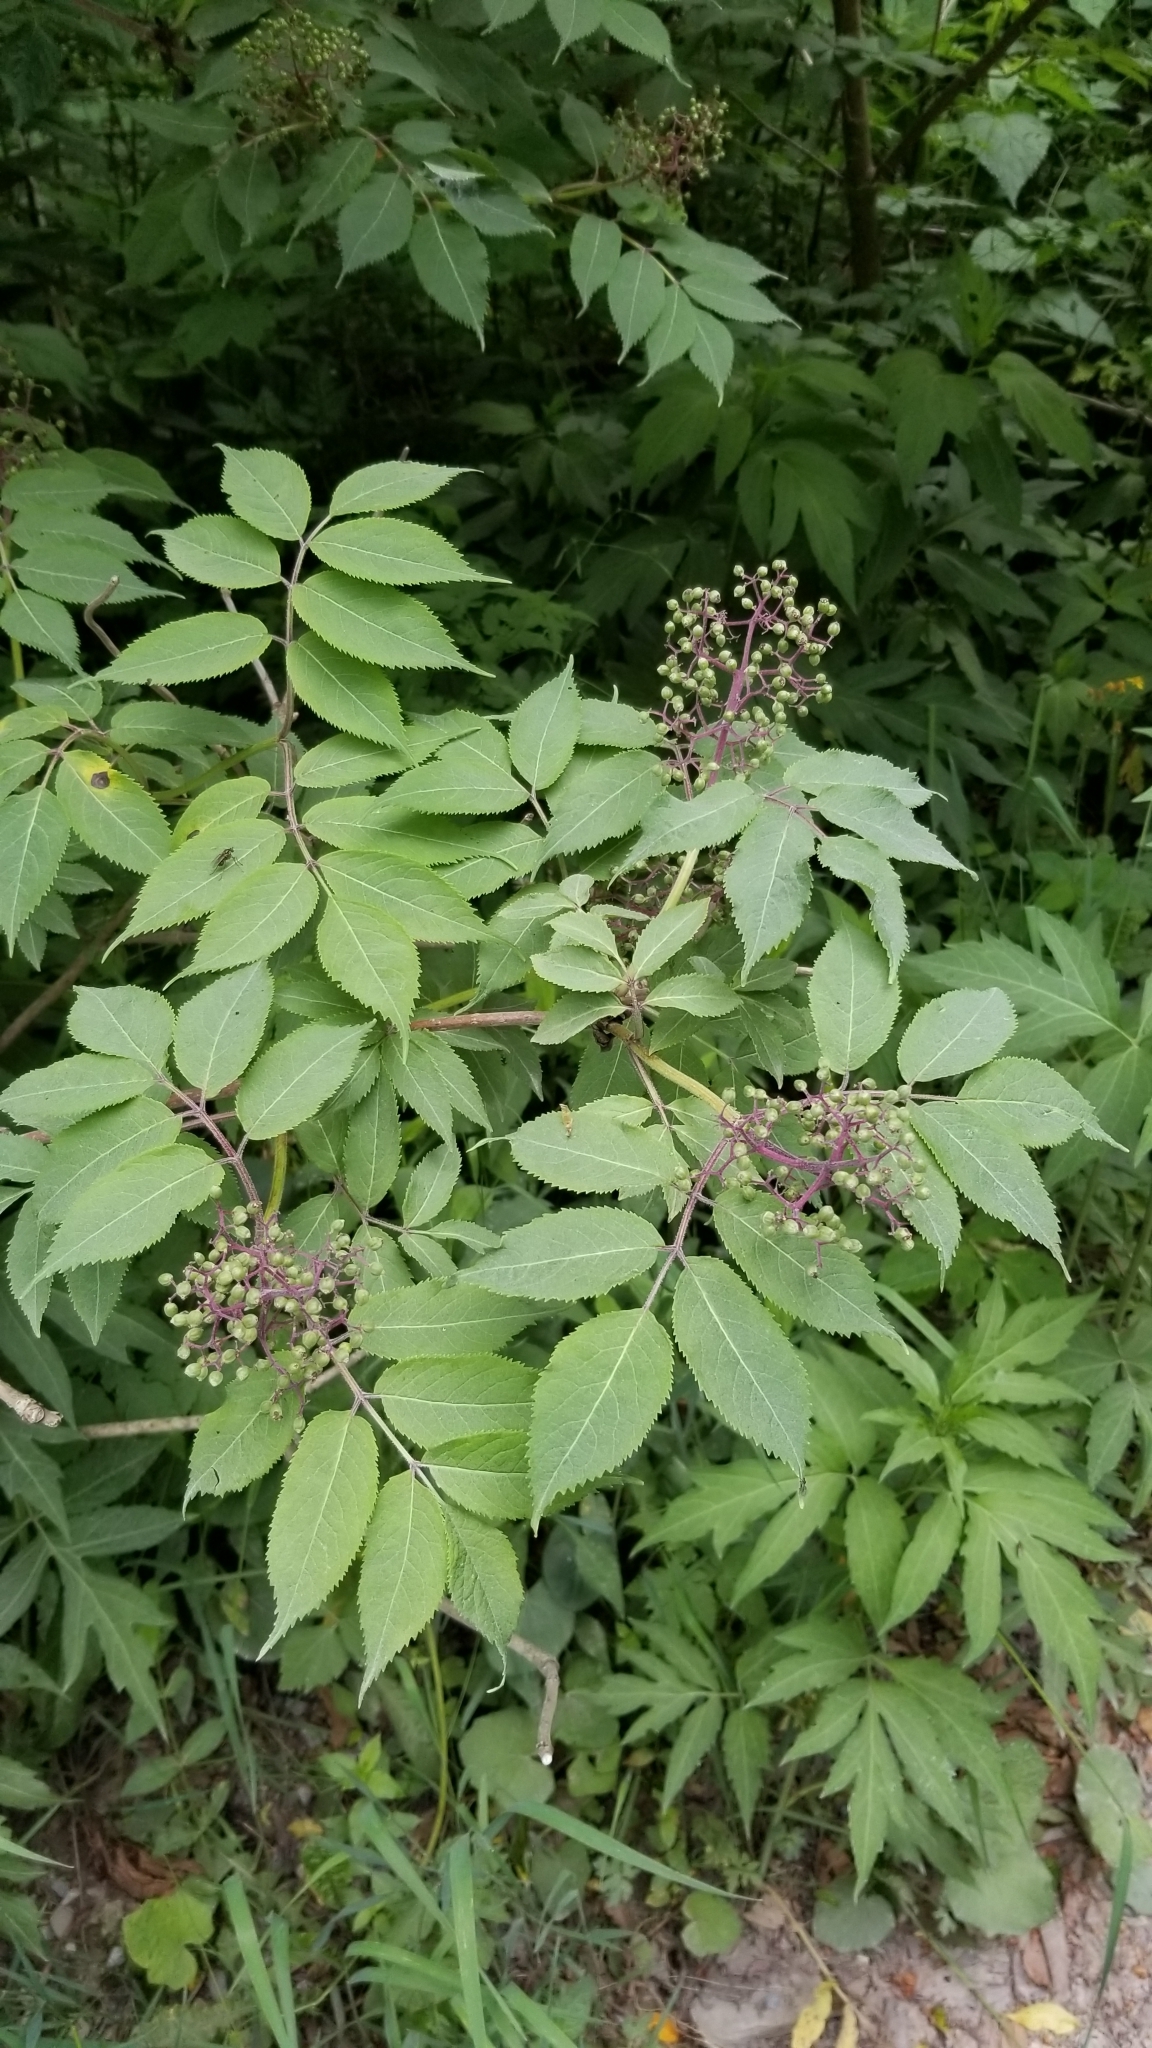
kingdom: Plantae
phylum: Tracheophyta
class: Magnoliopsida
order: Dipsacales
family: Viburnaceae
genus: Sambucus
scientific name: Sambucus racemosa
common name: Red-berried elder
